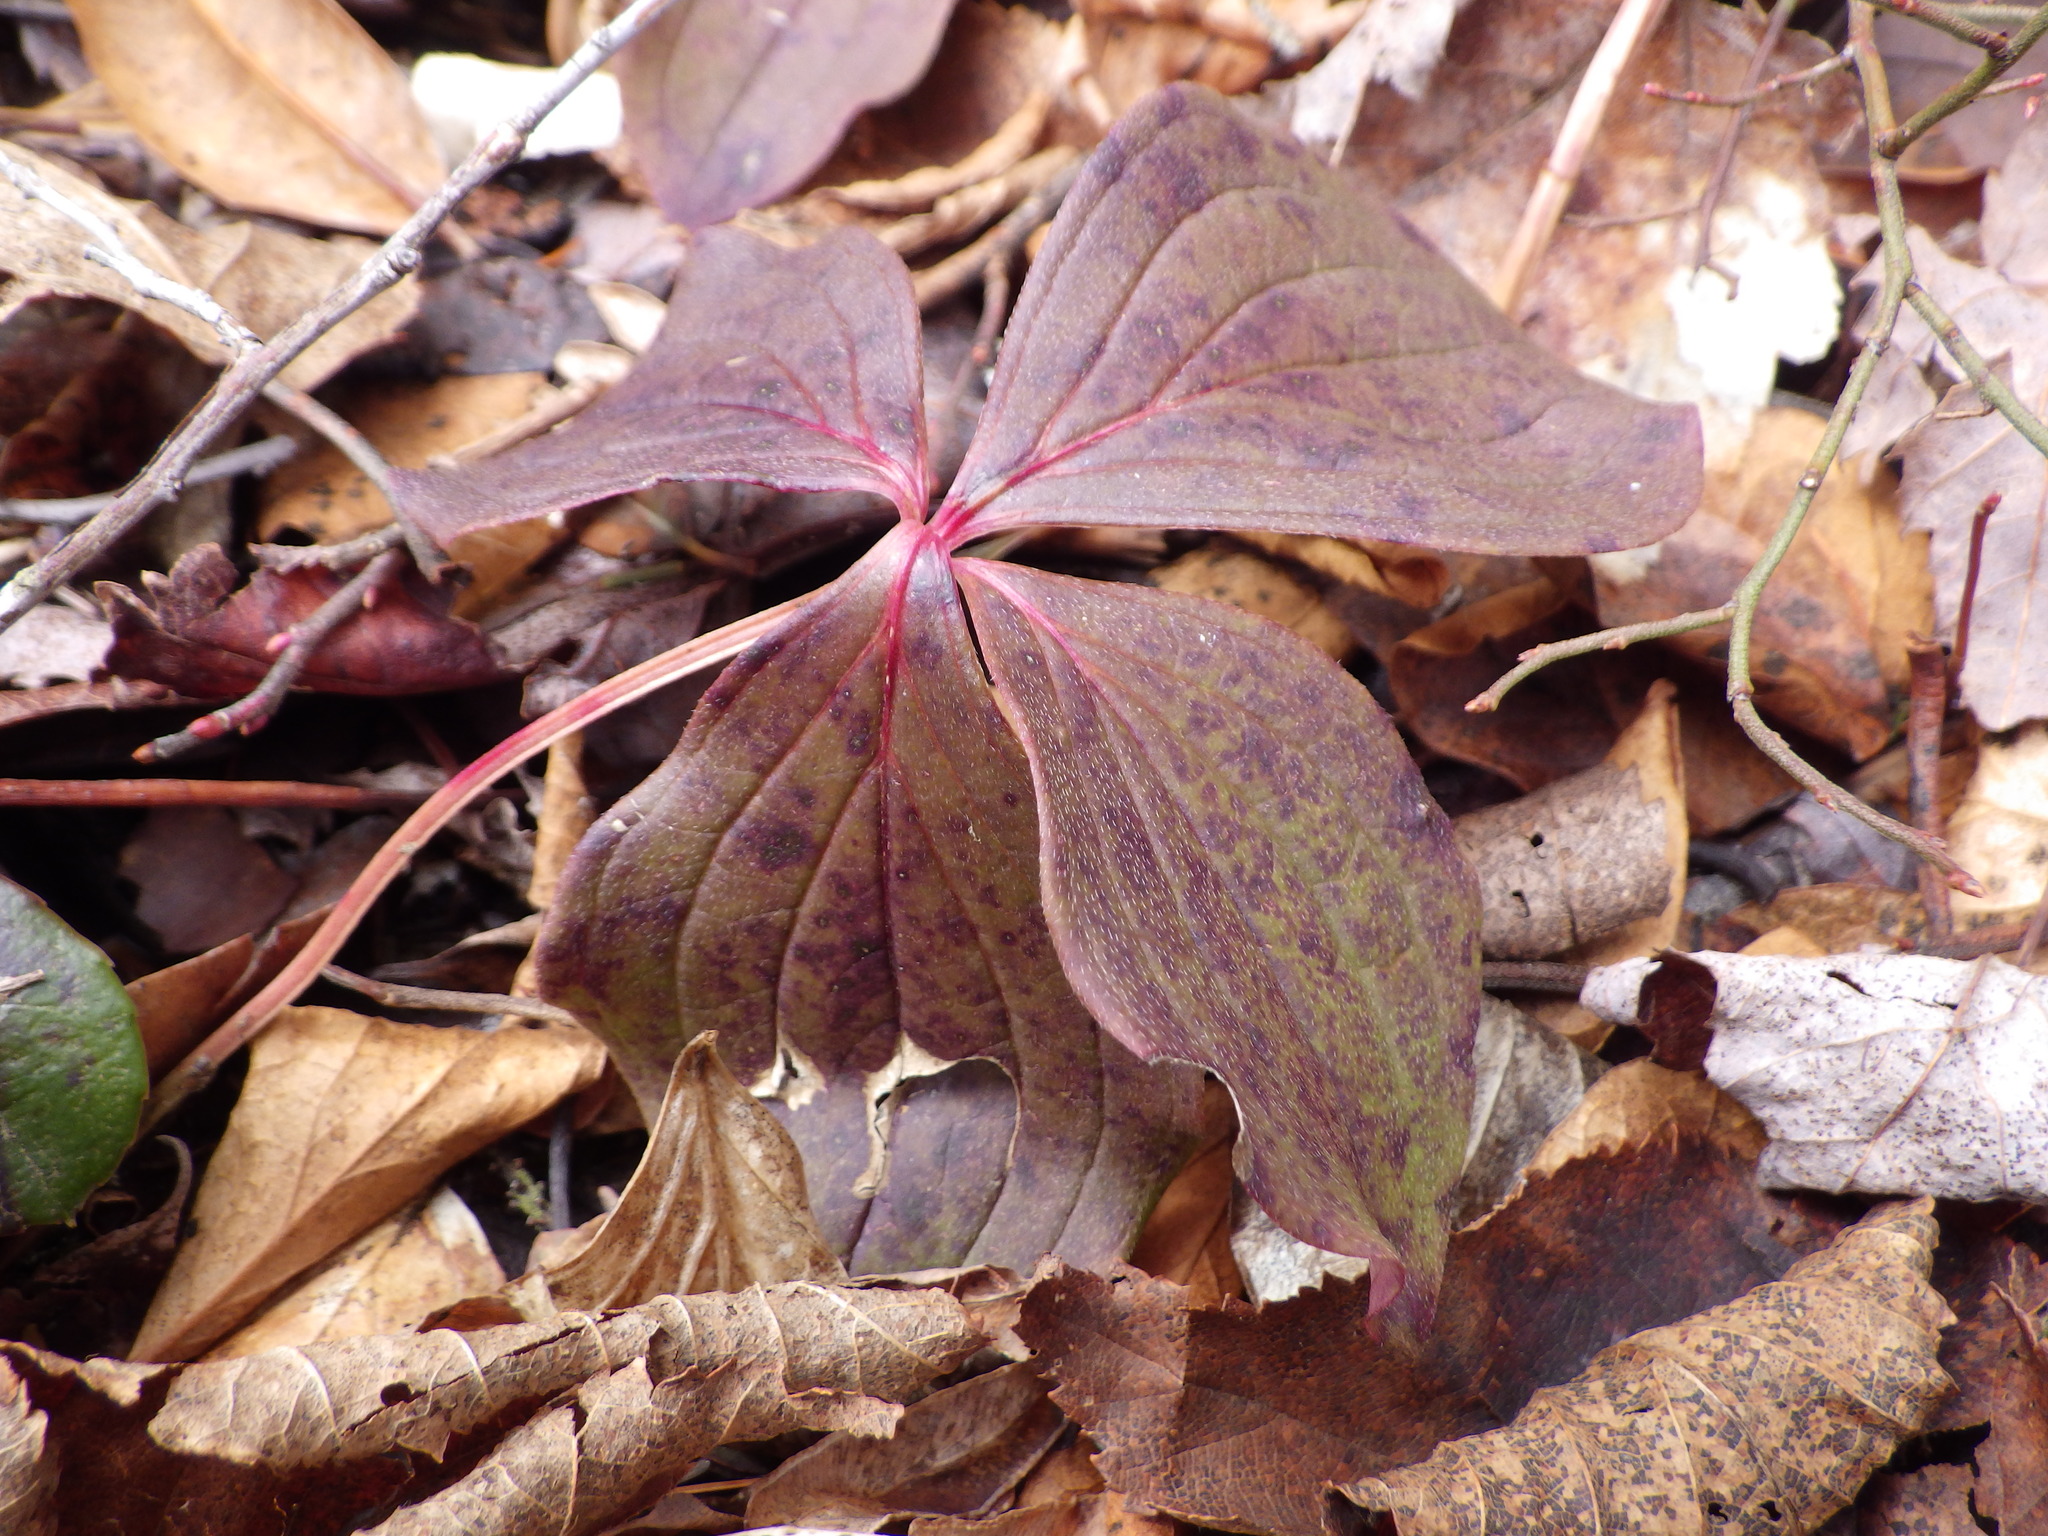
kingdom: Plantae
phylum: Tracheophyta
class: Magnoliopsida
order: Cornales
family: Cornaceae
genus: Cornus
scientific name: Cornus canadensis
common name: Creeping dogwood
